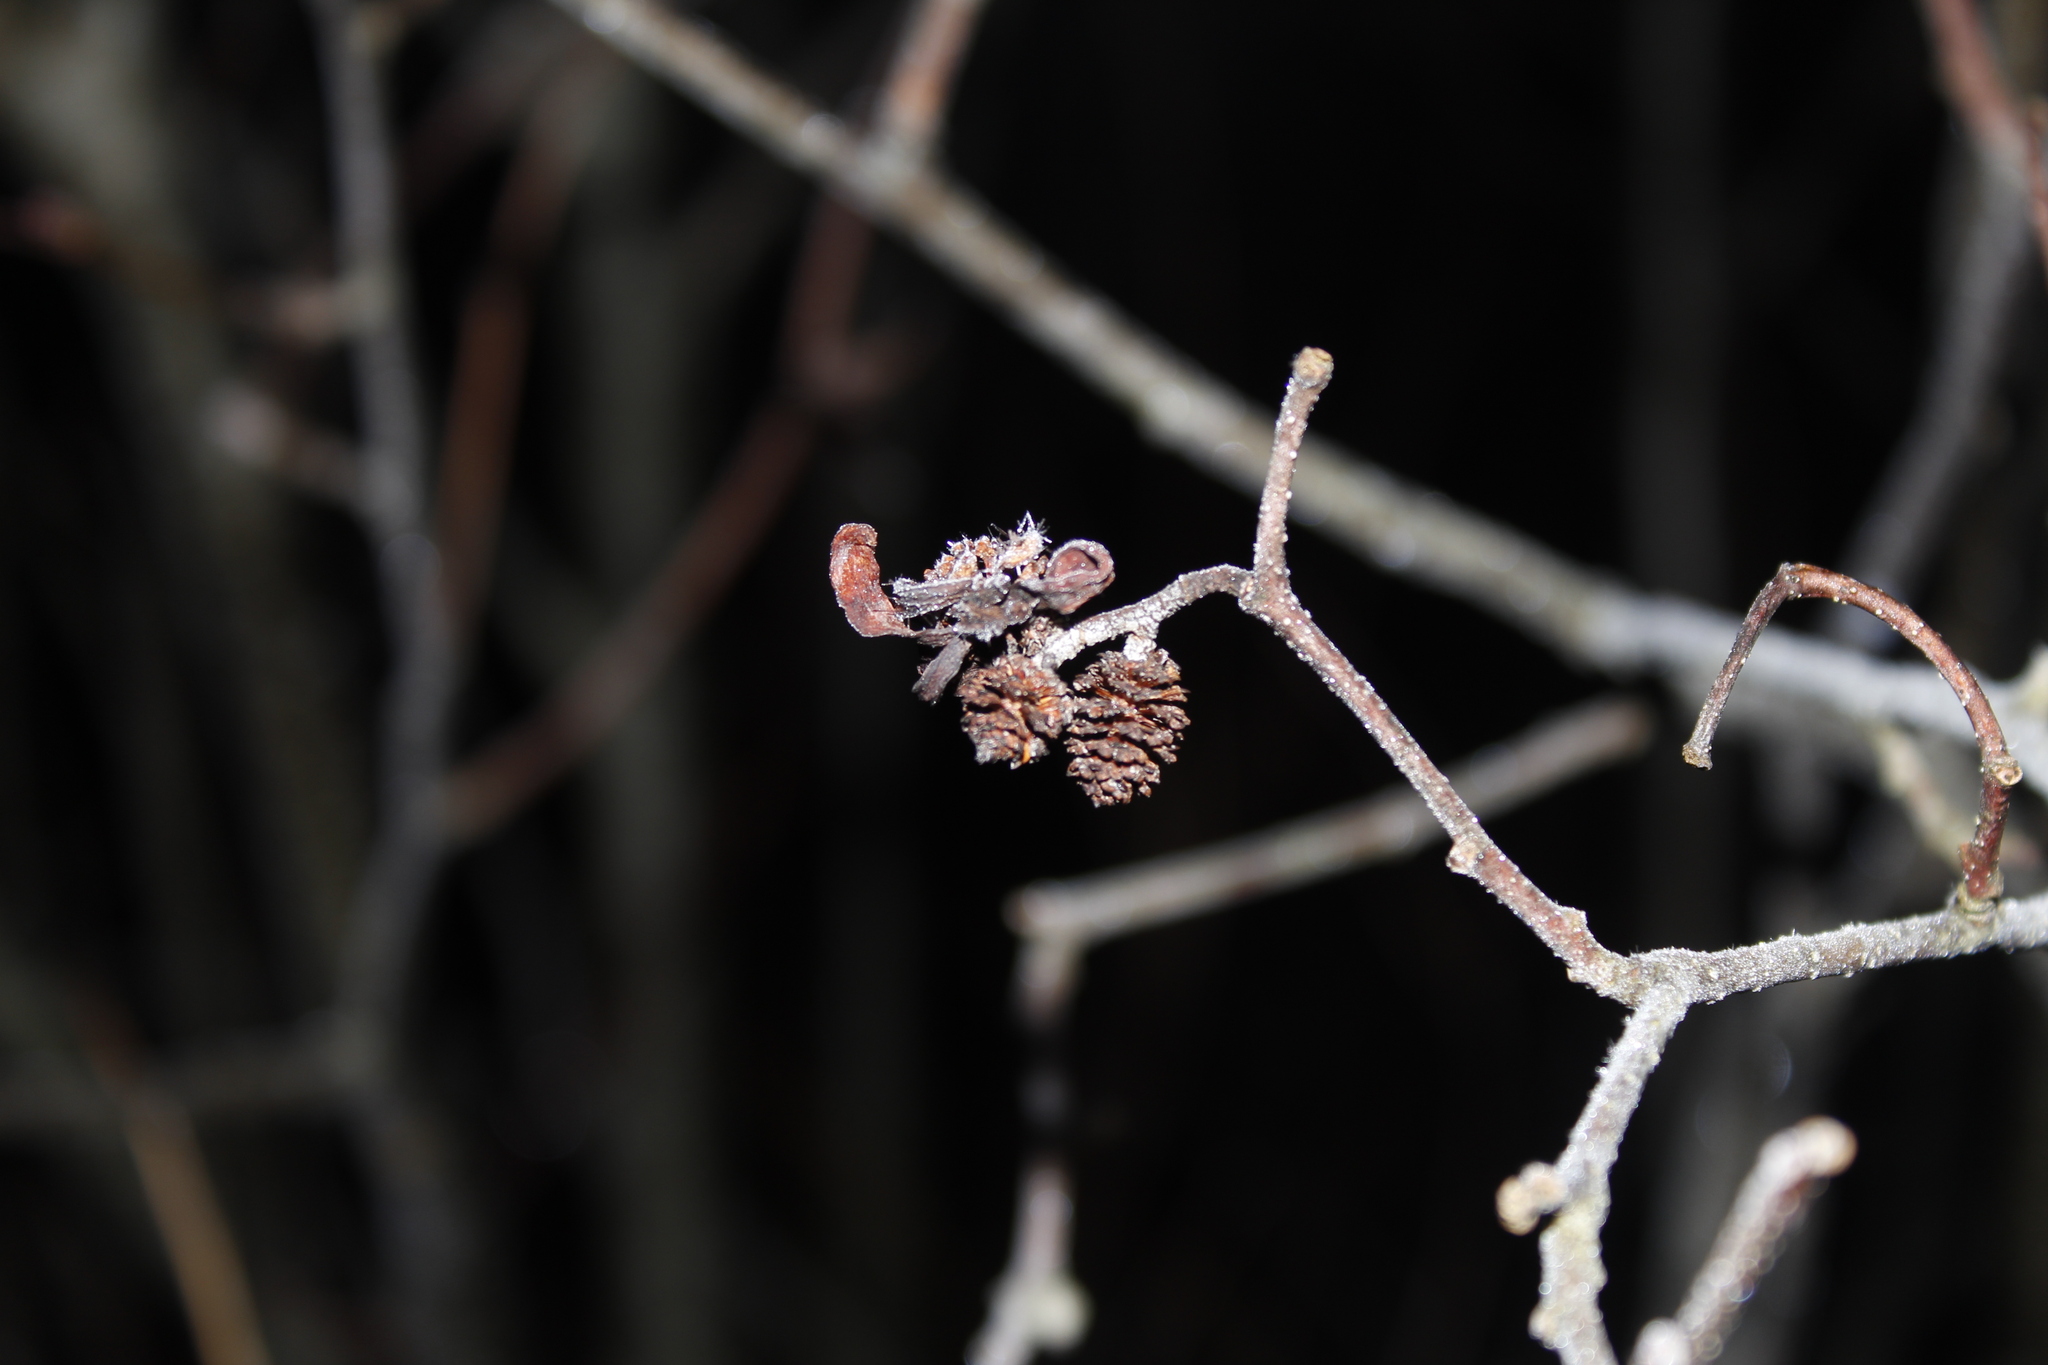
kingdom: Fungi
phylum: Ascomycota
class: Taphrinomycetes
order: Taphrinales
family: Taphrinaceae
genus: Taphrina
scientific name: Taphrina robinsoniana
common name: Eastern american alder tongue gall fungus
